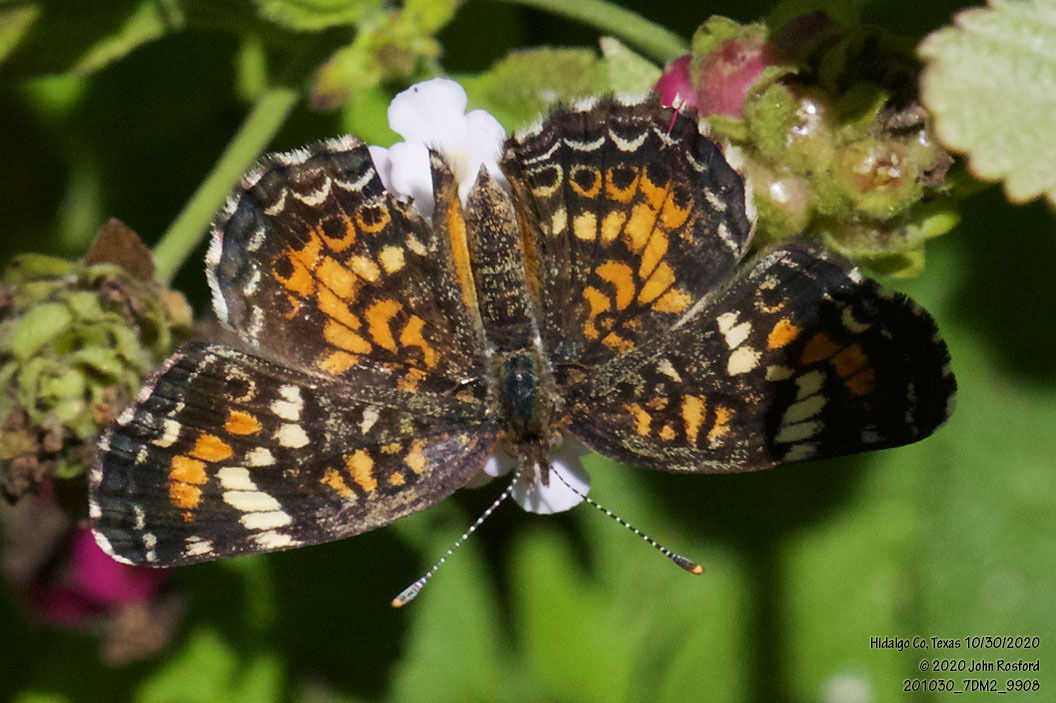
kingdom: Animalia
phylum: Arthropoda
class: Insecta
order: Lepidoptera
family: Nymphalidae
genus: Phyciodes
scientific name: Phyciodes phaon
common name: Phaon crescent
